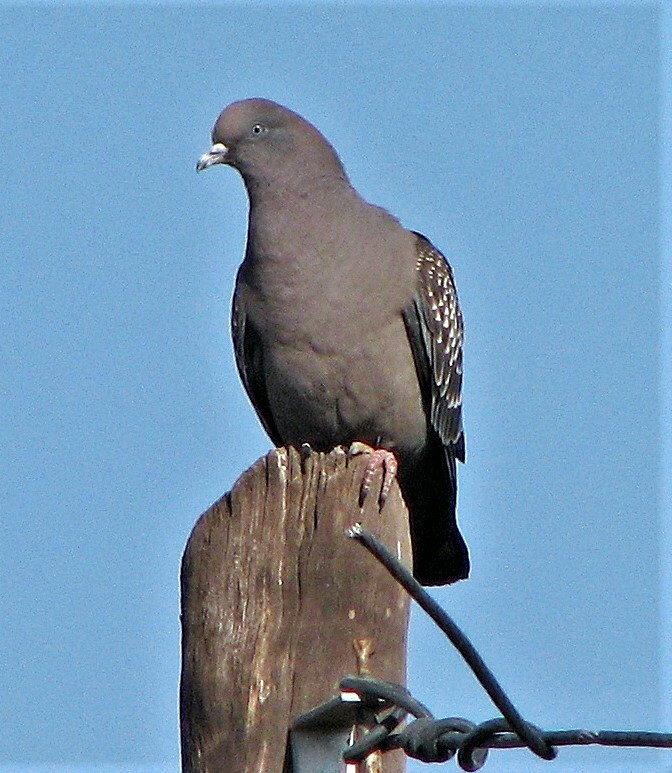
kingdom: Animalia
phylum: Chordata
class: Aves
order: Columbiformes
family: Columbidae
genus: Patagioenas
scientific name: Patagioenas maculosa
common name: Spot-winged pigeon
